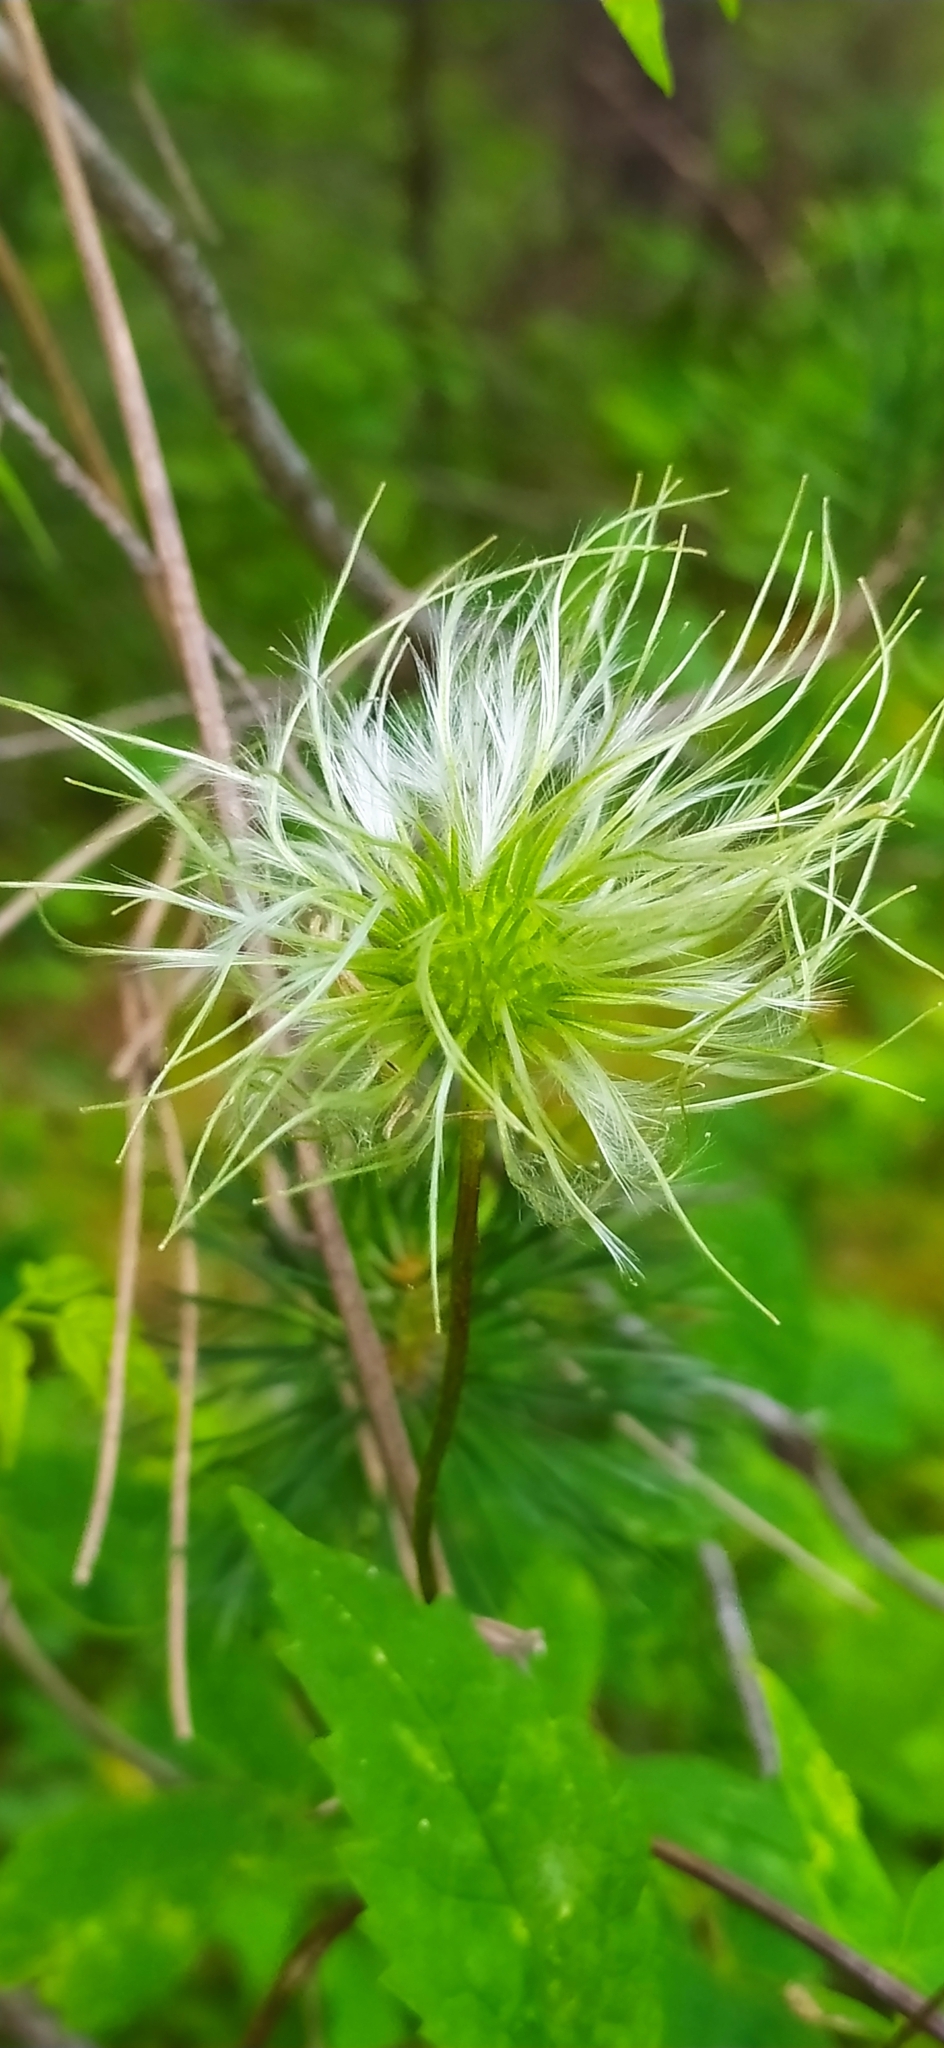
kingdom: Plantae
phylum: Tracheophyta
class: Magnoliopsida
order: Ranunculales
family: Ranunculaceae
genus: Clematis
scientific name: Clematis sibirica
